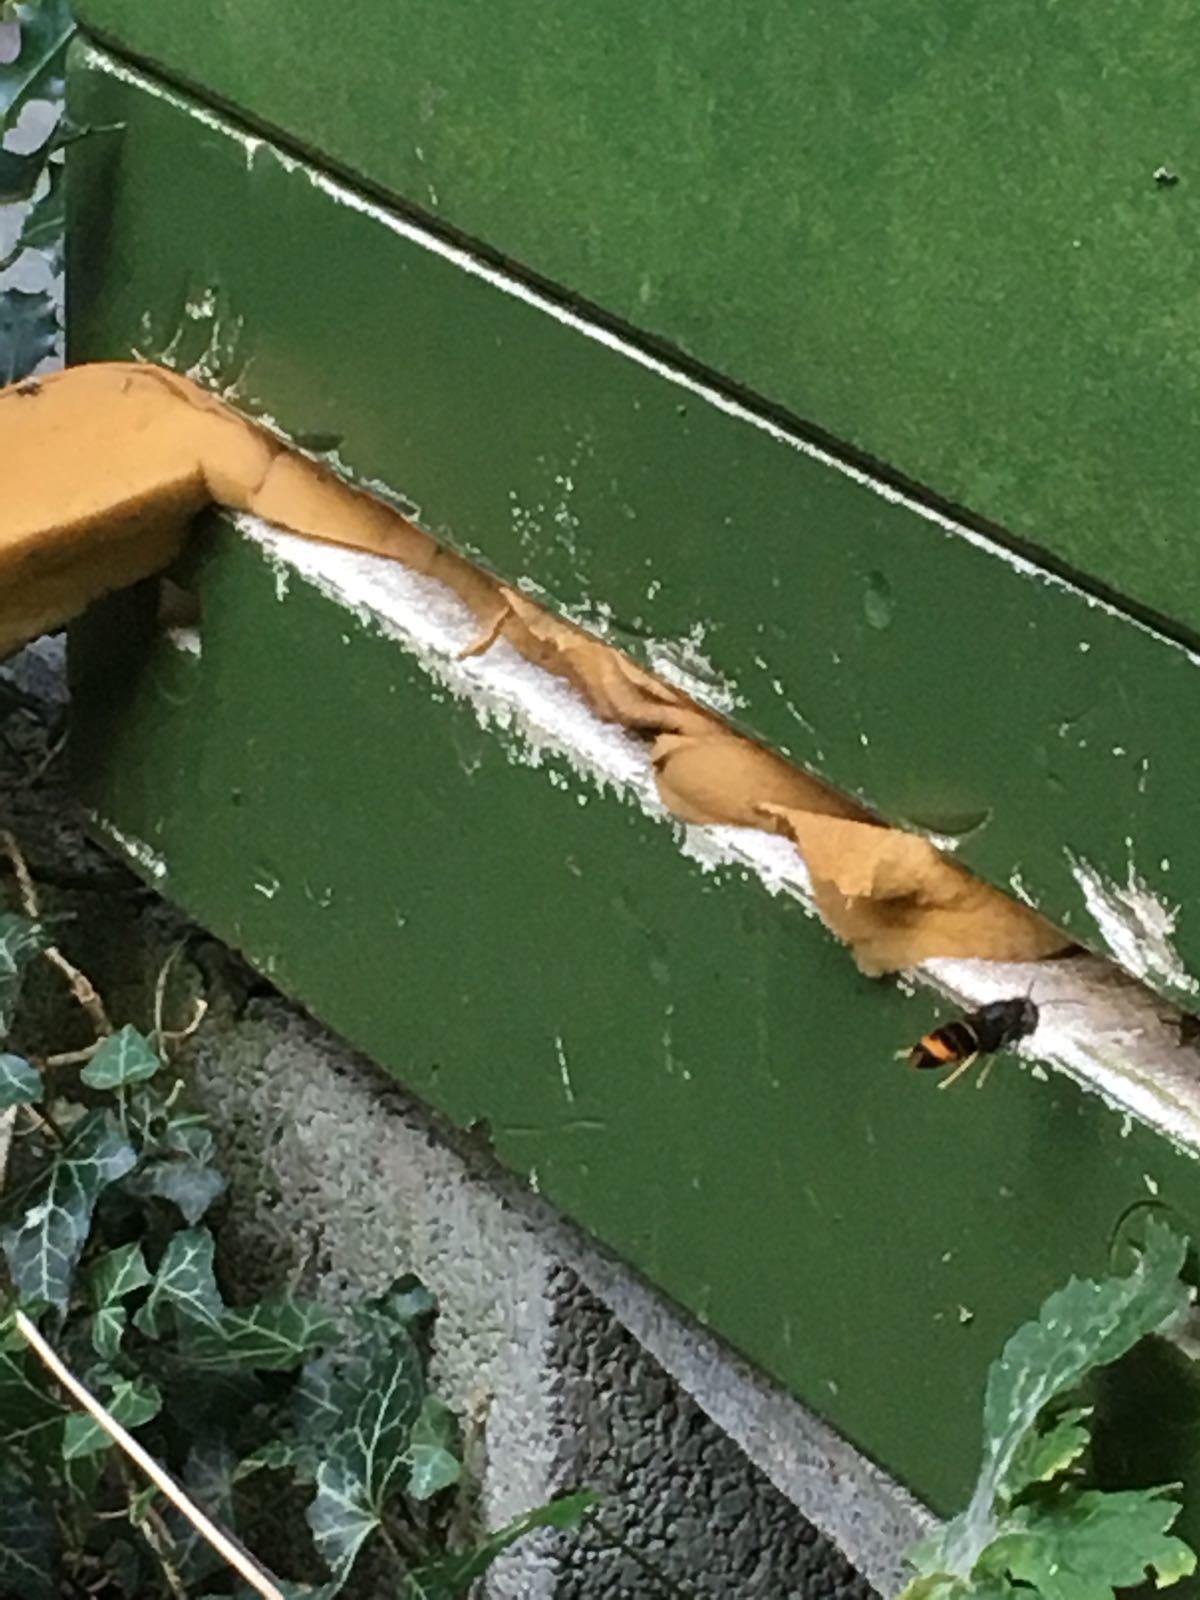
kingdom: Animalia
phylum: Arthropoda
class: Insecta
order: Hymenoptera
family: Vespidae
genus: Vespa
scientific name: Vespa velutina
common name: Asian hornet
